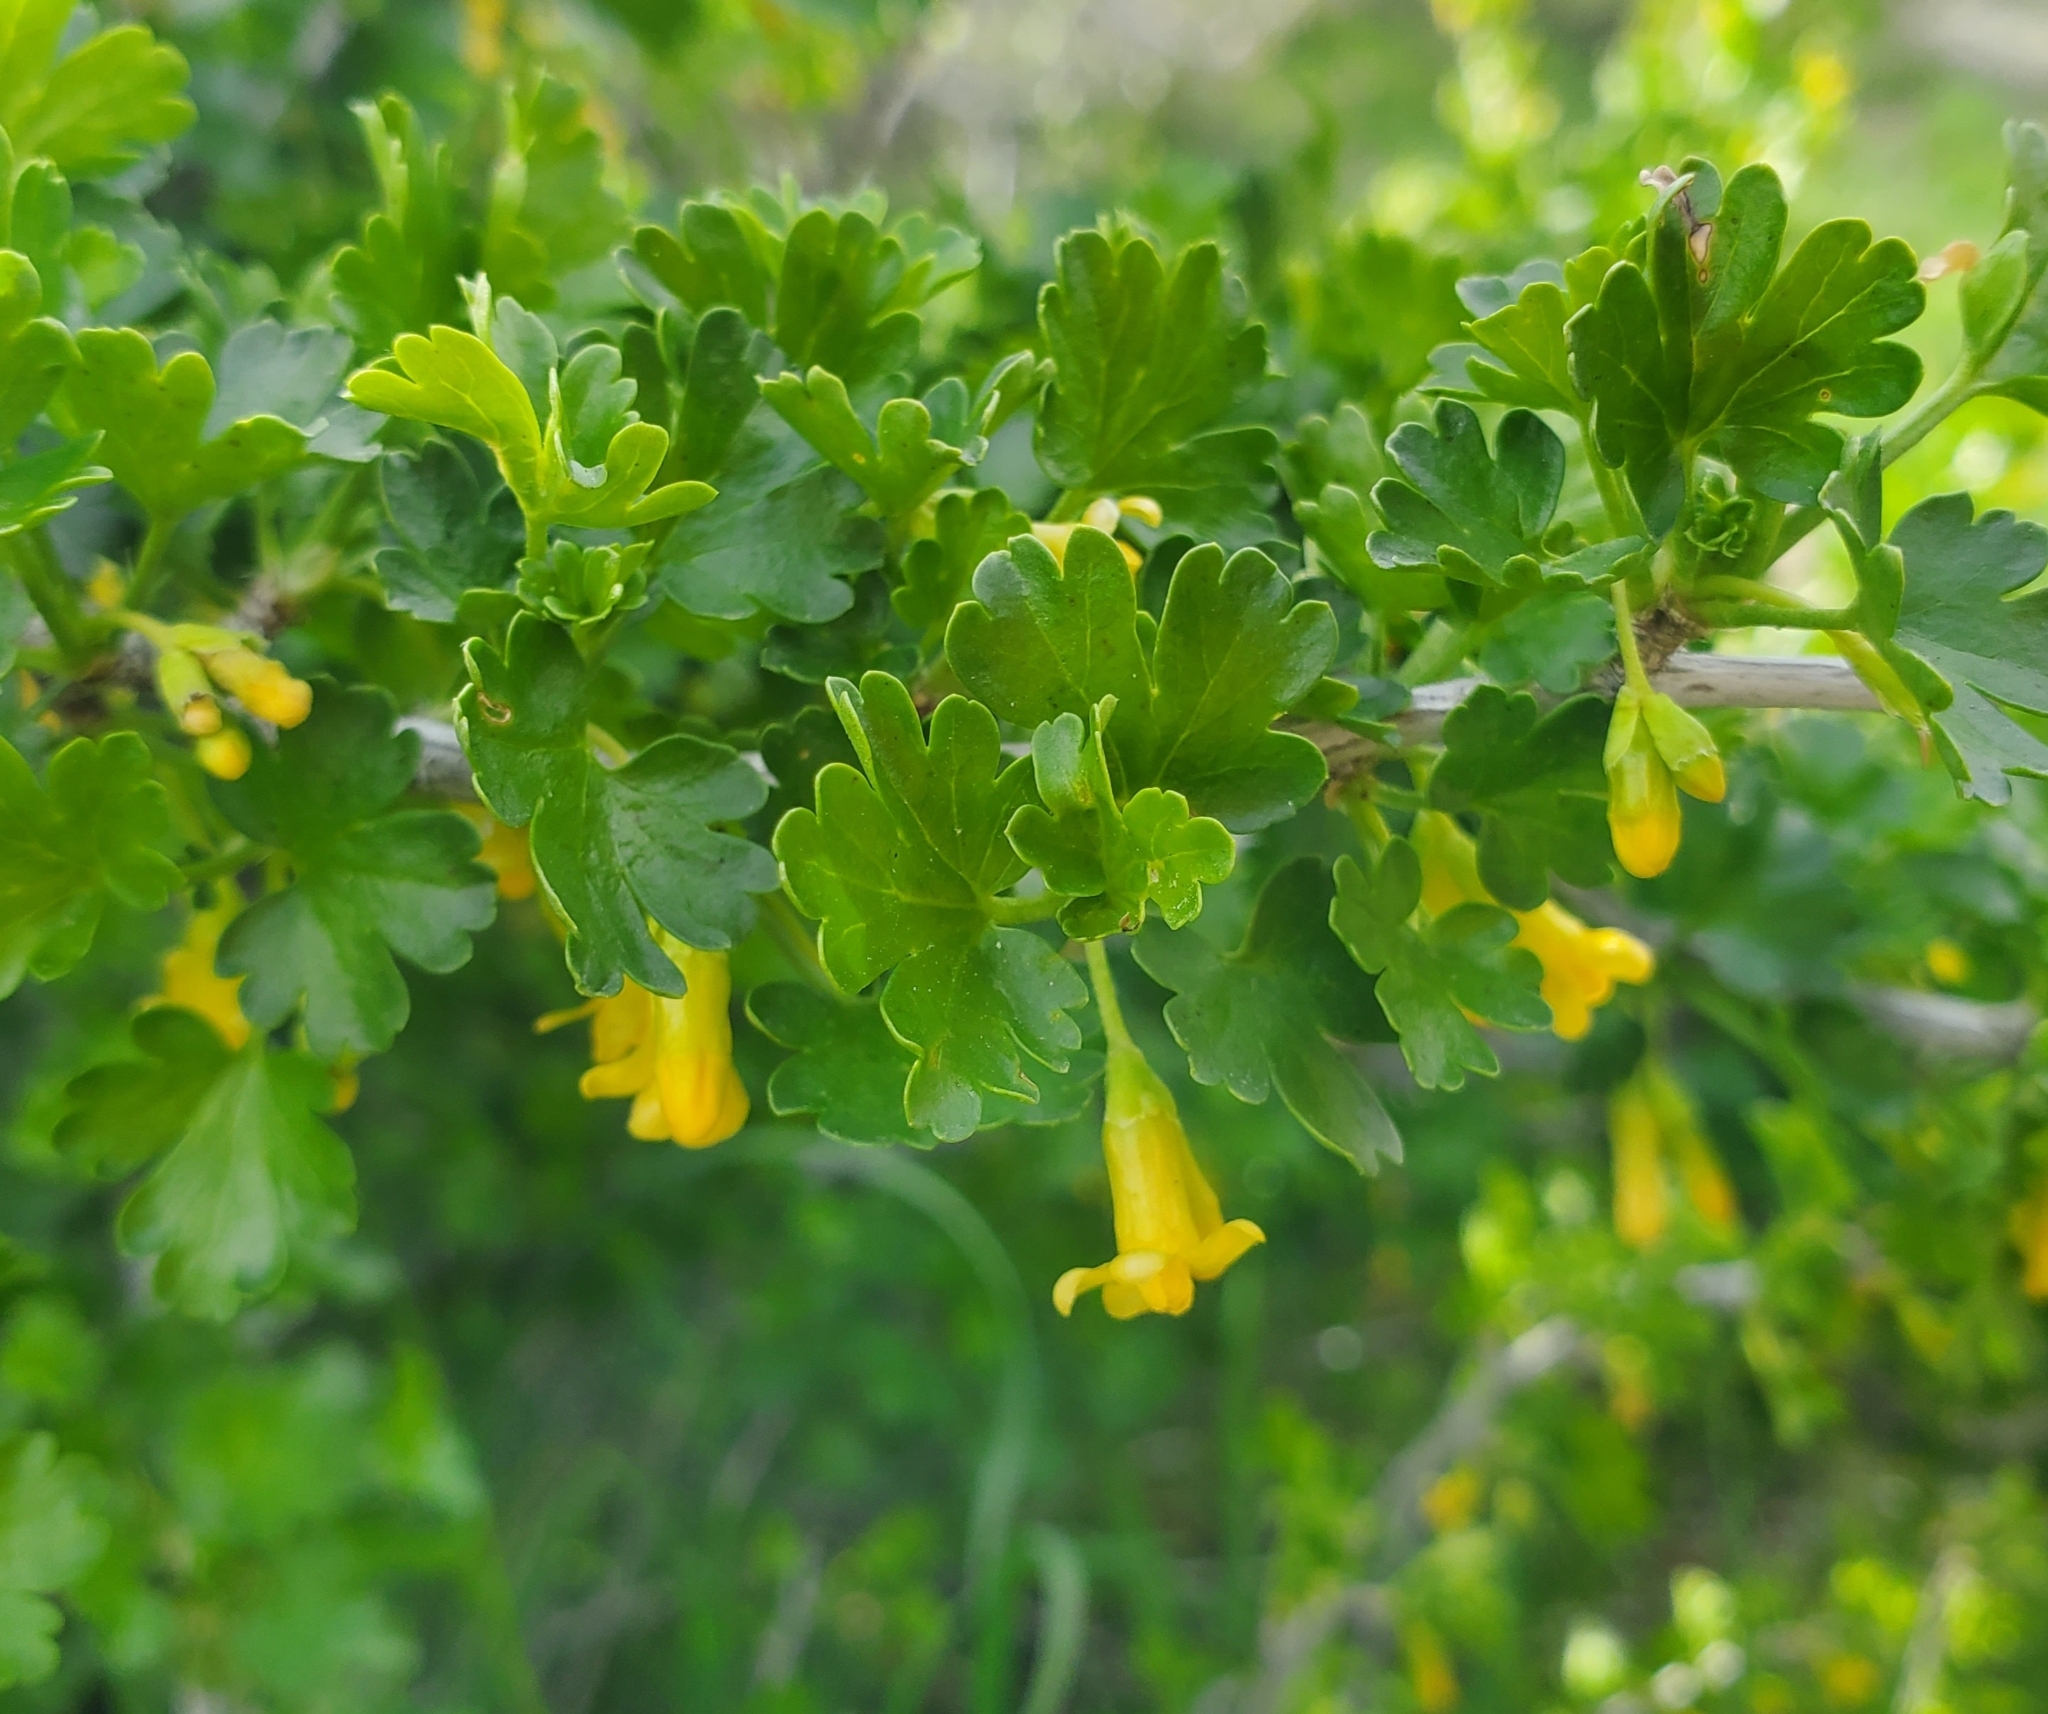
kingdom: Plantae
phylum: Tracheophyta
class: Magnoliopsida
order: Saxifragales
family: Grossulariaceae
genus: Ribes
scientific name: Ribes quercetorum
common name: Oak gooseberry
